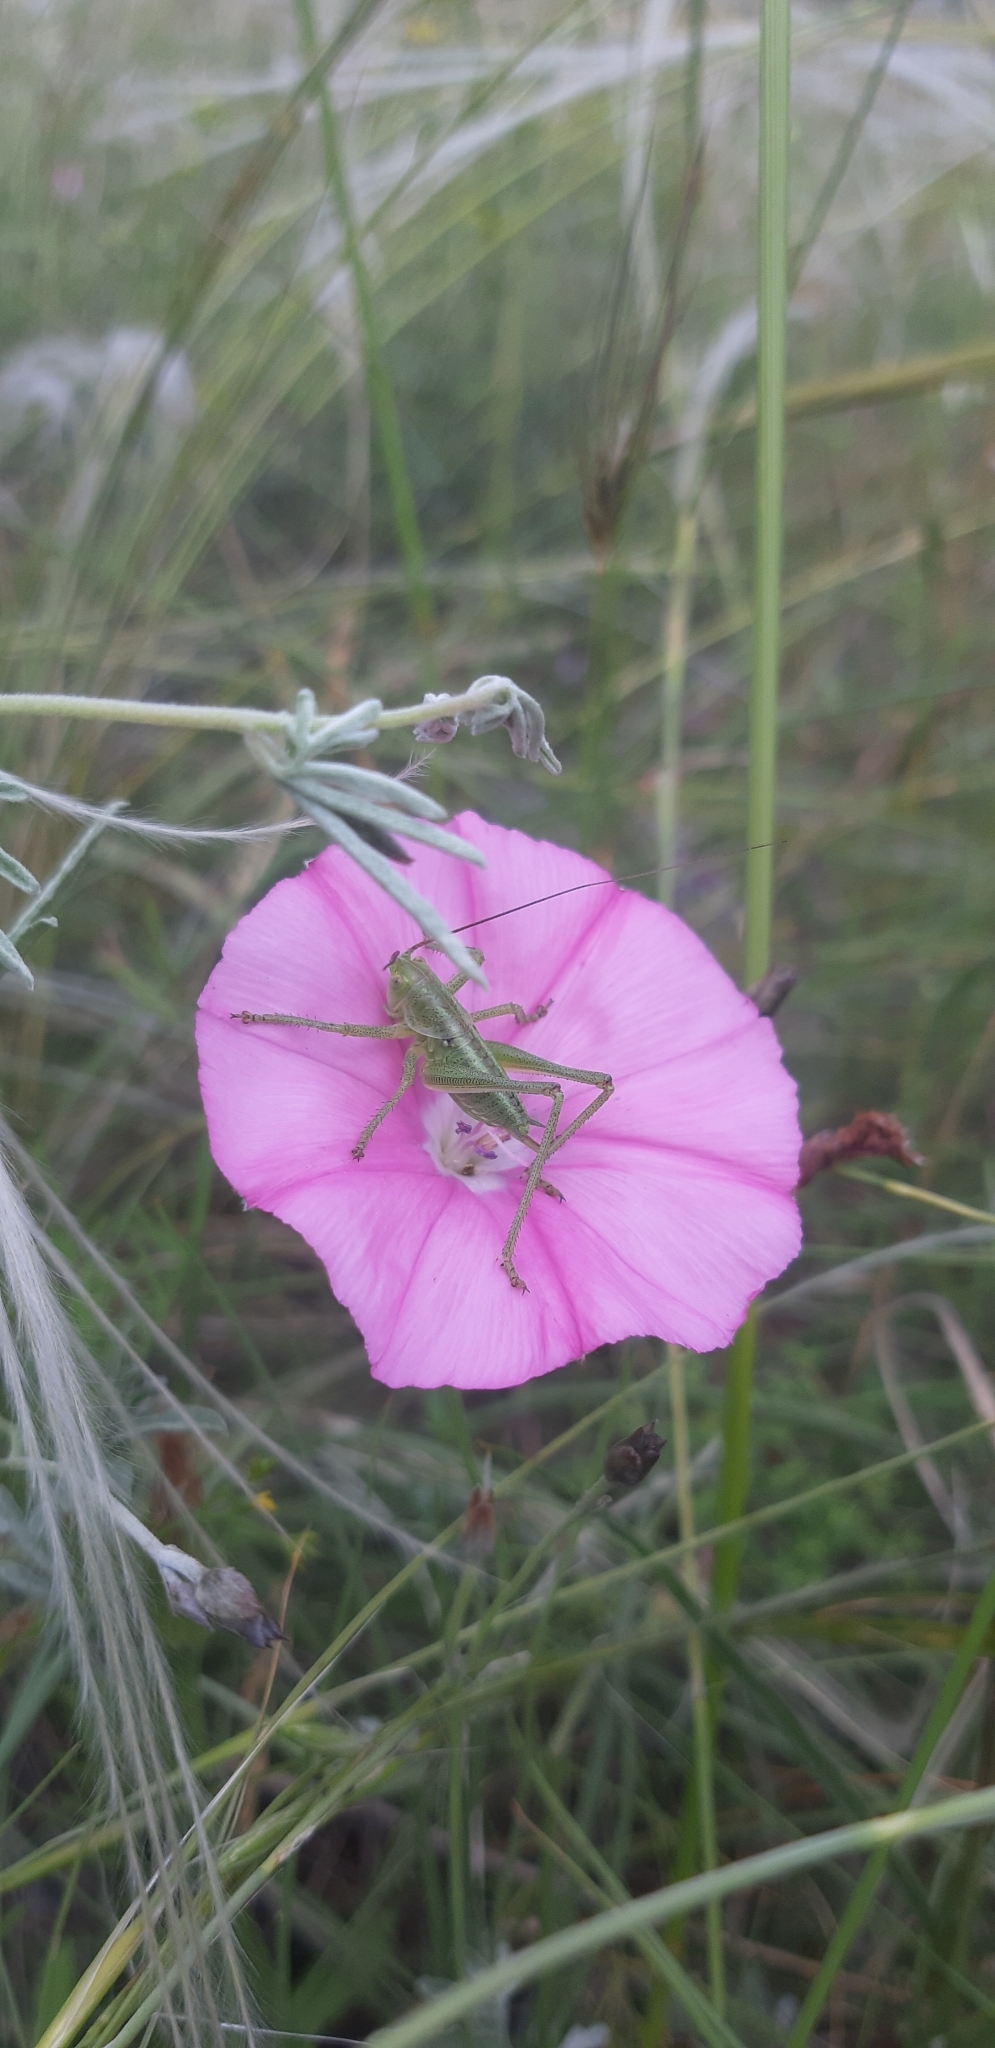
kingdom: Animalia
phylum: Arthropoda
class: Insecta
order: Orthoptera
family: Tettigoniidae
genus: Tettigonia
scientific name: Tettigonia viridissima
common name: Great green bush-cricket
